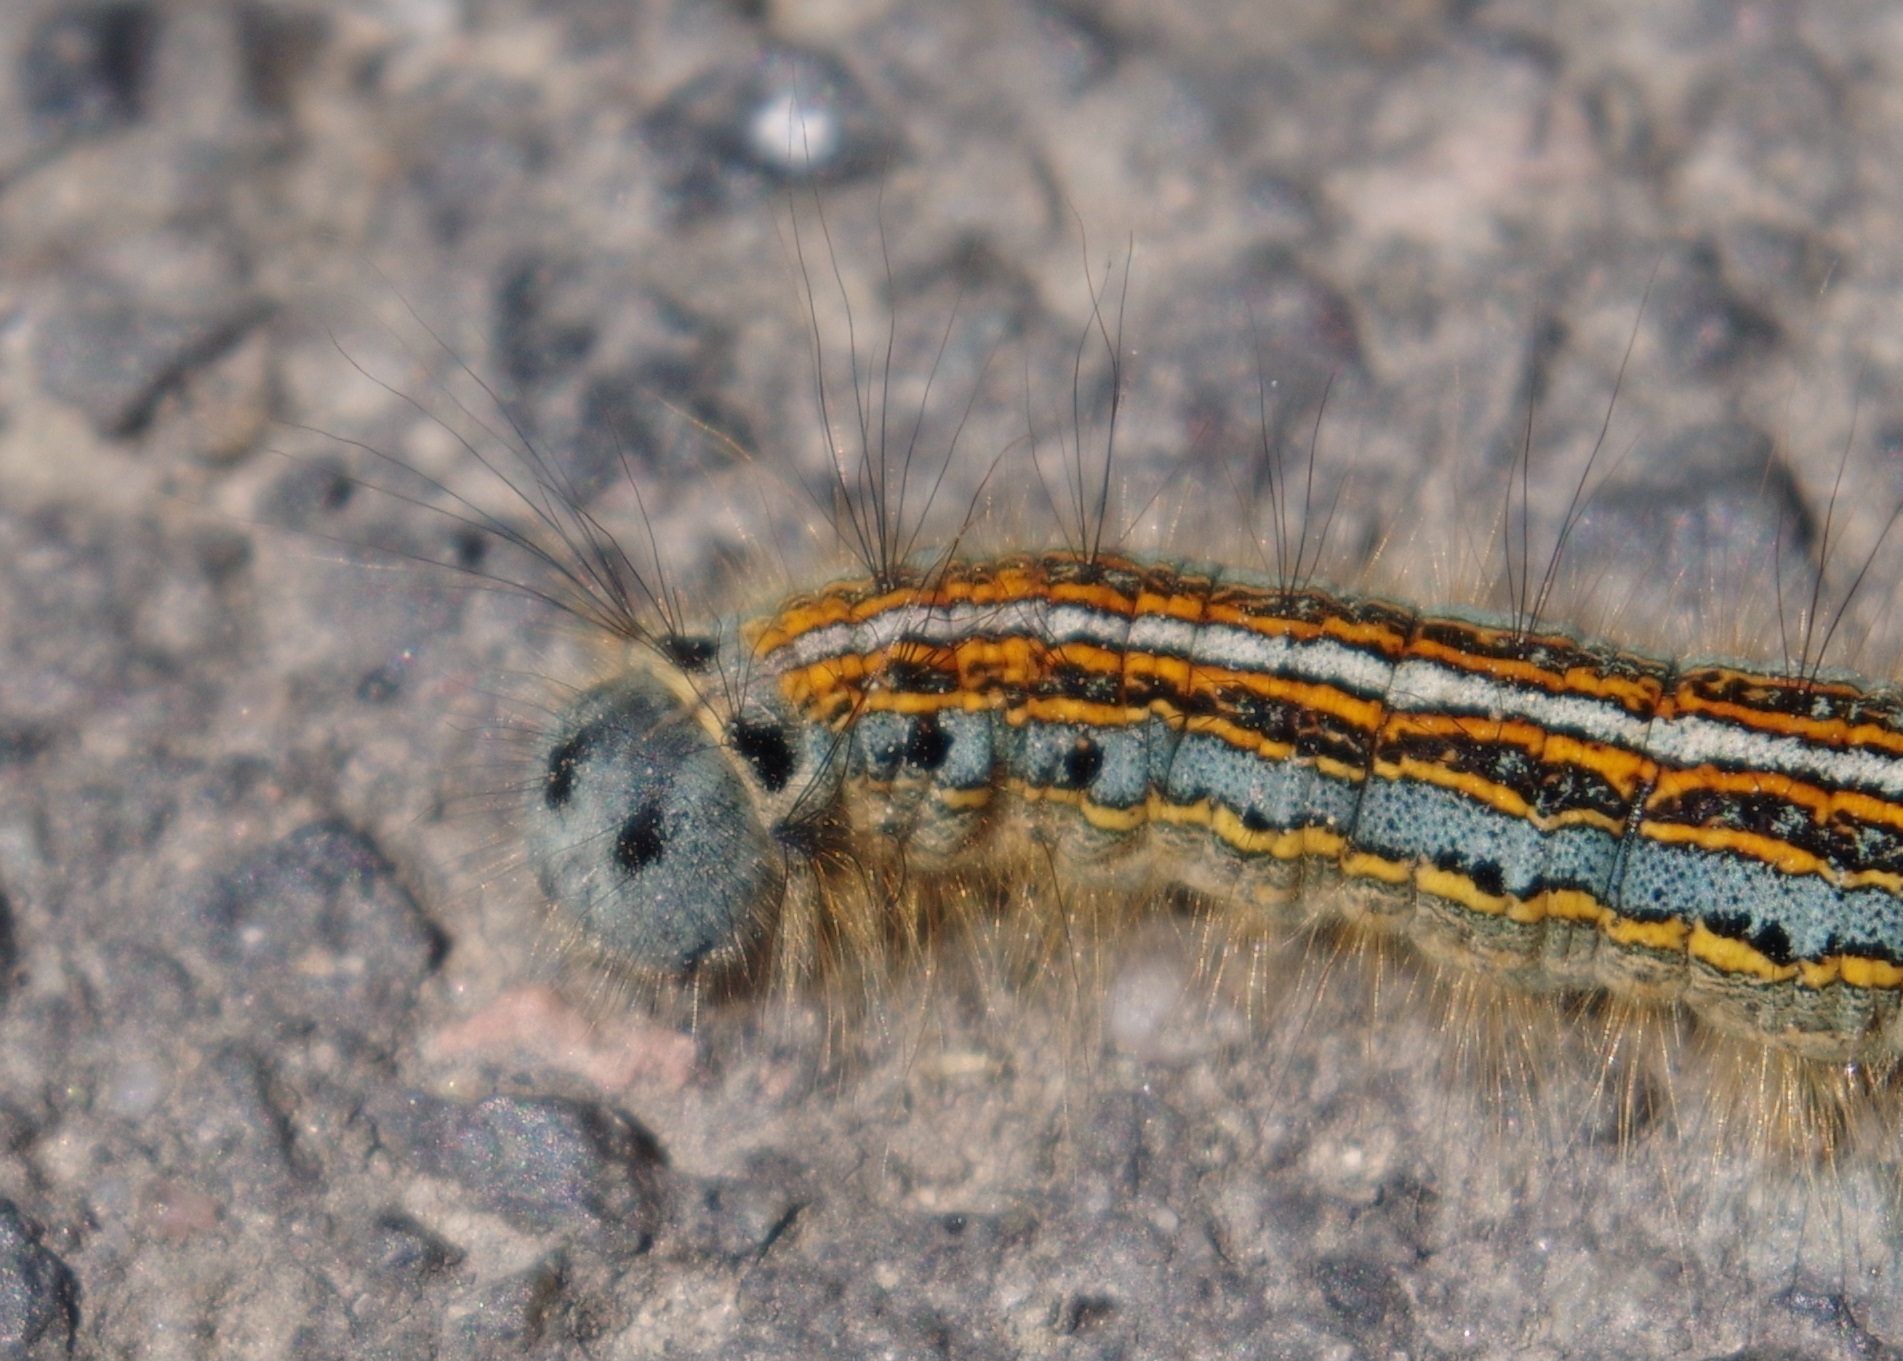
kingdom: Animalia
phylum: Arthropoda
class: Insecta
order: Lepidoptera
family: Lasiocampidae
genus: Malacosoma
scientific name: Malacosoma neustria
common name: The lackey
